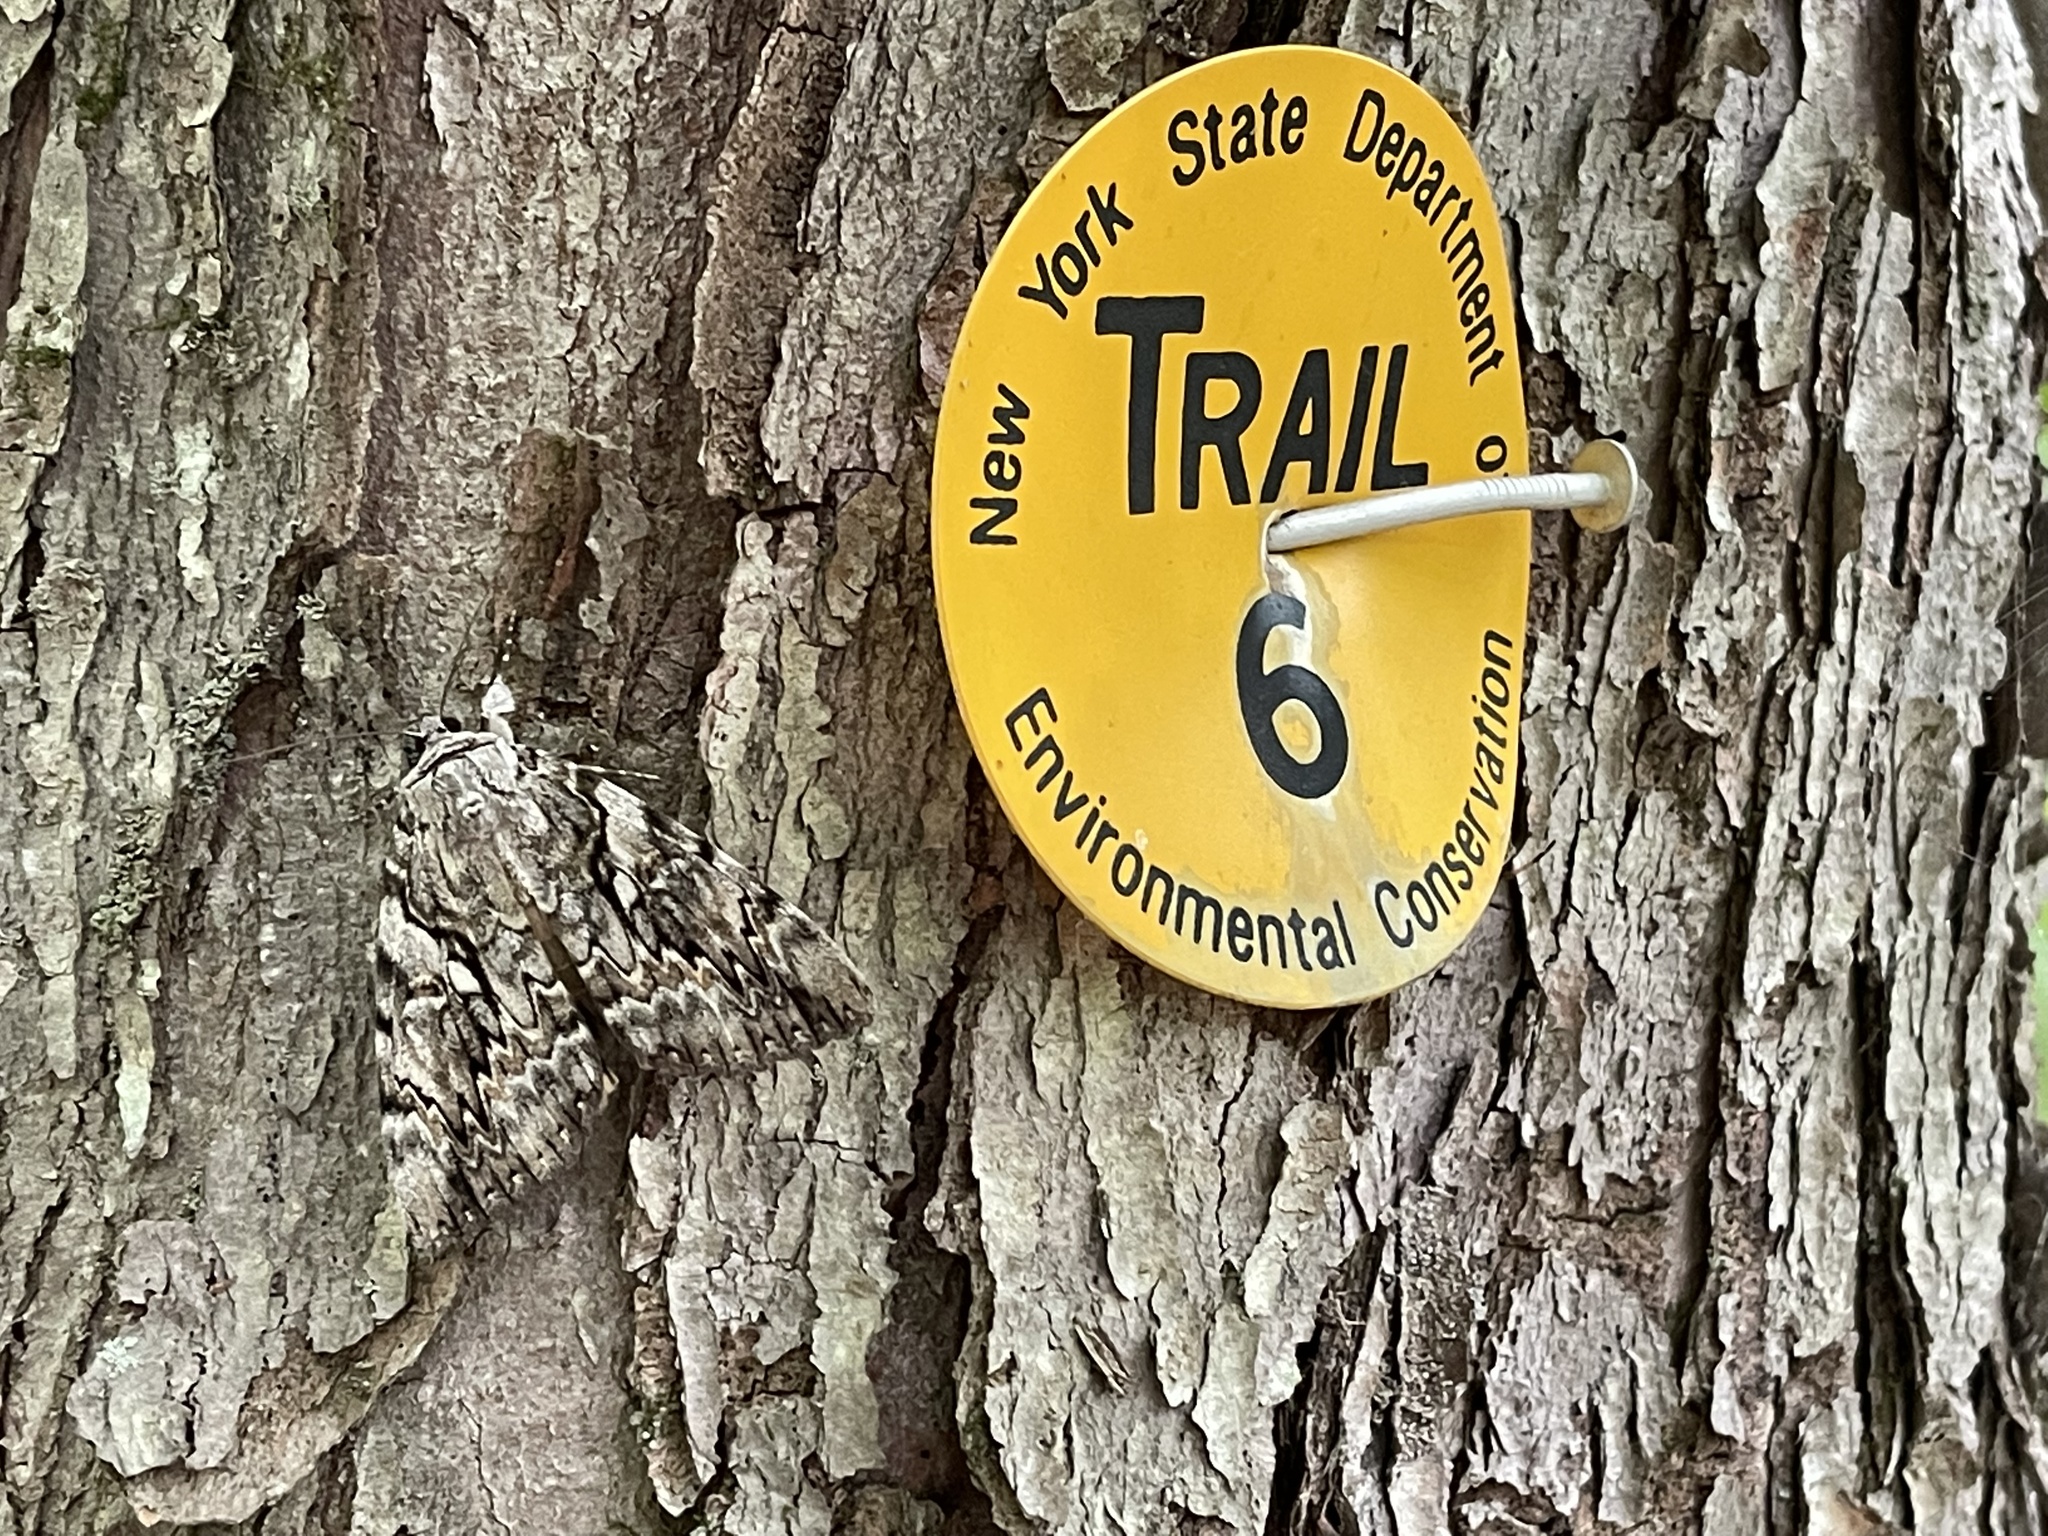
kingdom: Animalia
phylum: Arthropoda
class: Insecta
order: Lepidoptera
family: Erebidae
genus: Catocala
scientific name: Catocala cerogama
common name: Yellow banded underwing
